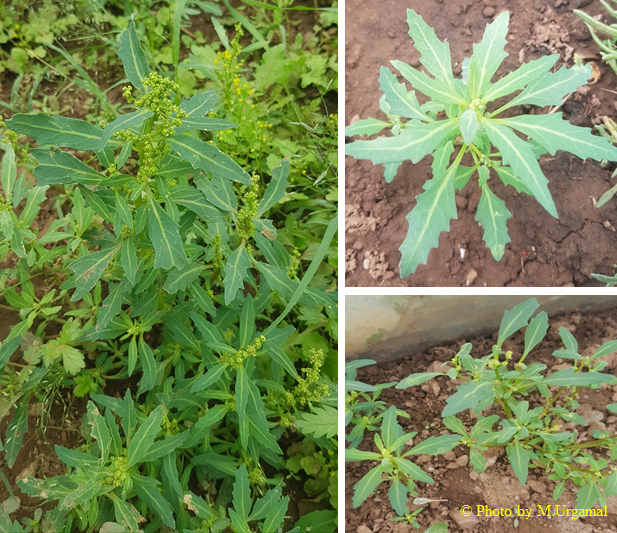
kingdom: Plantae
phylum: Tracheophyta
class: Magnoliopsida
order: Caryophyllales
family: Amaranthaceae
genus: Oxybasis
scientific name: Oxybasis glauca
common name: Glaucous goosefoot
